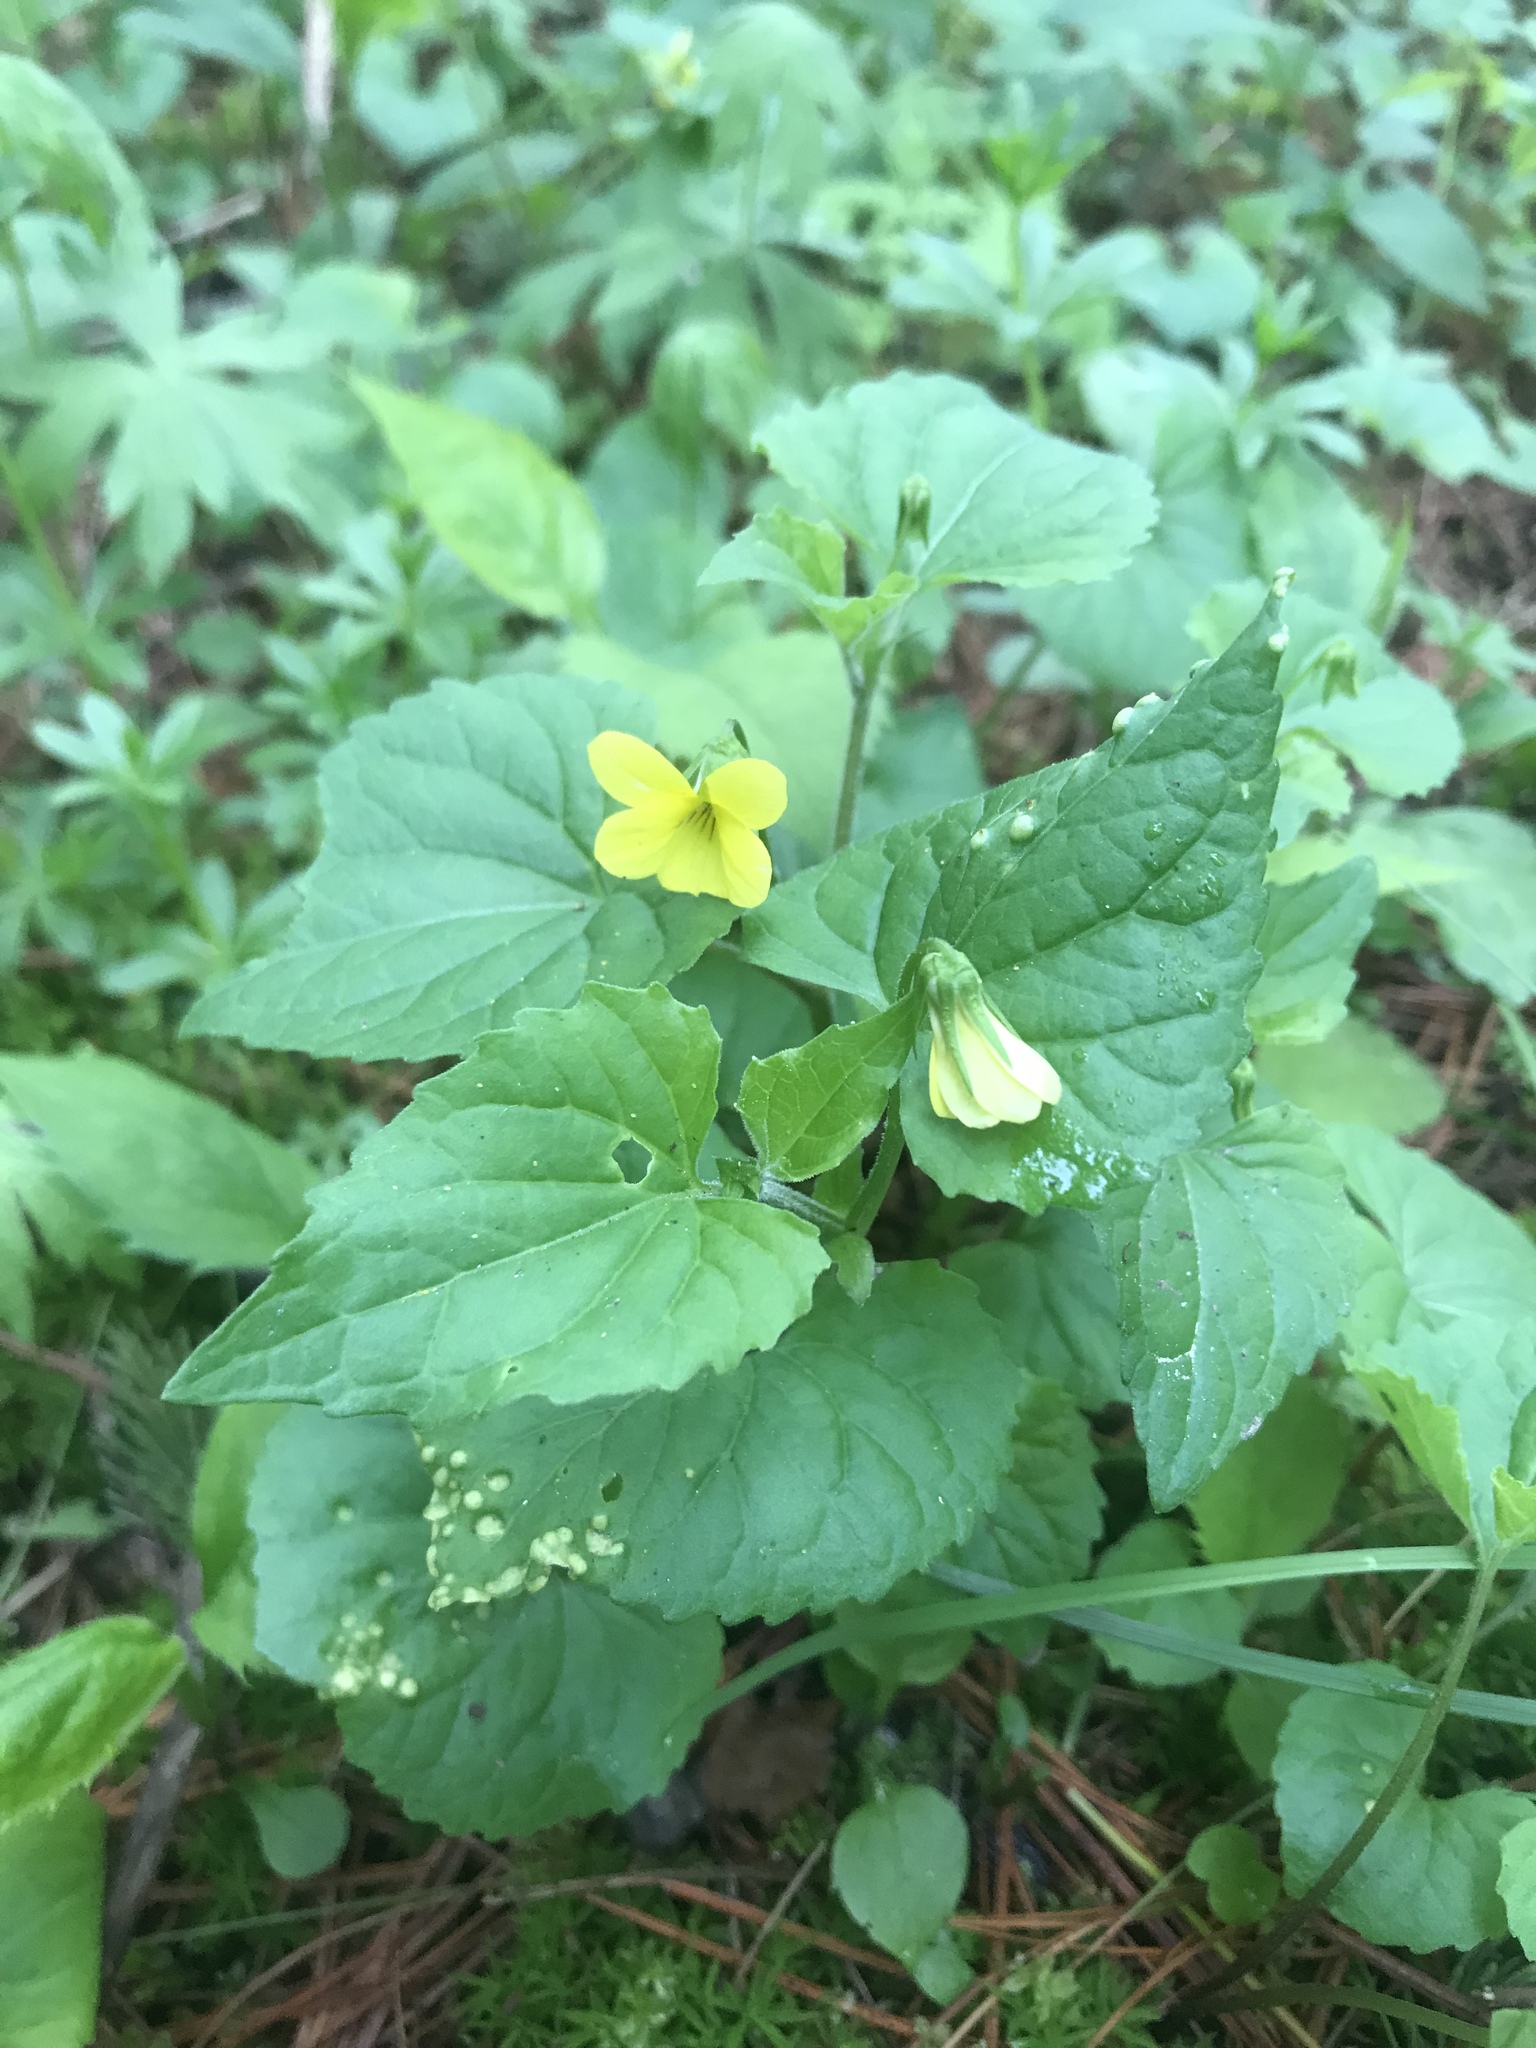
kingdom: Plantae
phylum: Tracheophyta
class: Magnoliopsida
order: Malpighiales
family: Violaceae
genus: Viola
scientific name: Viola eriocarpa
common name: Smooth yellow violet
